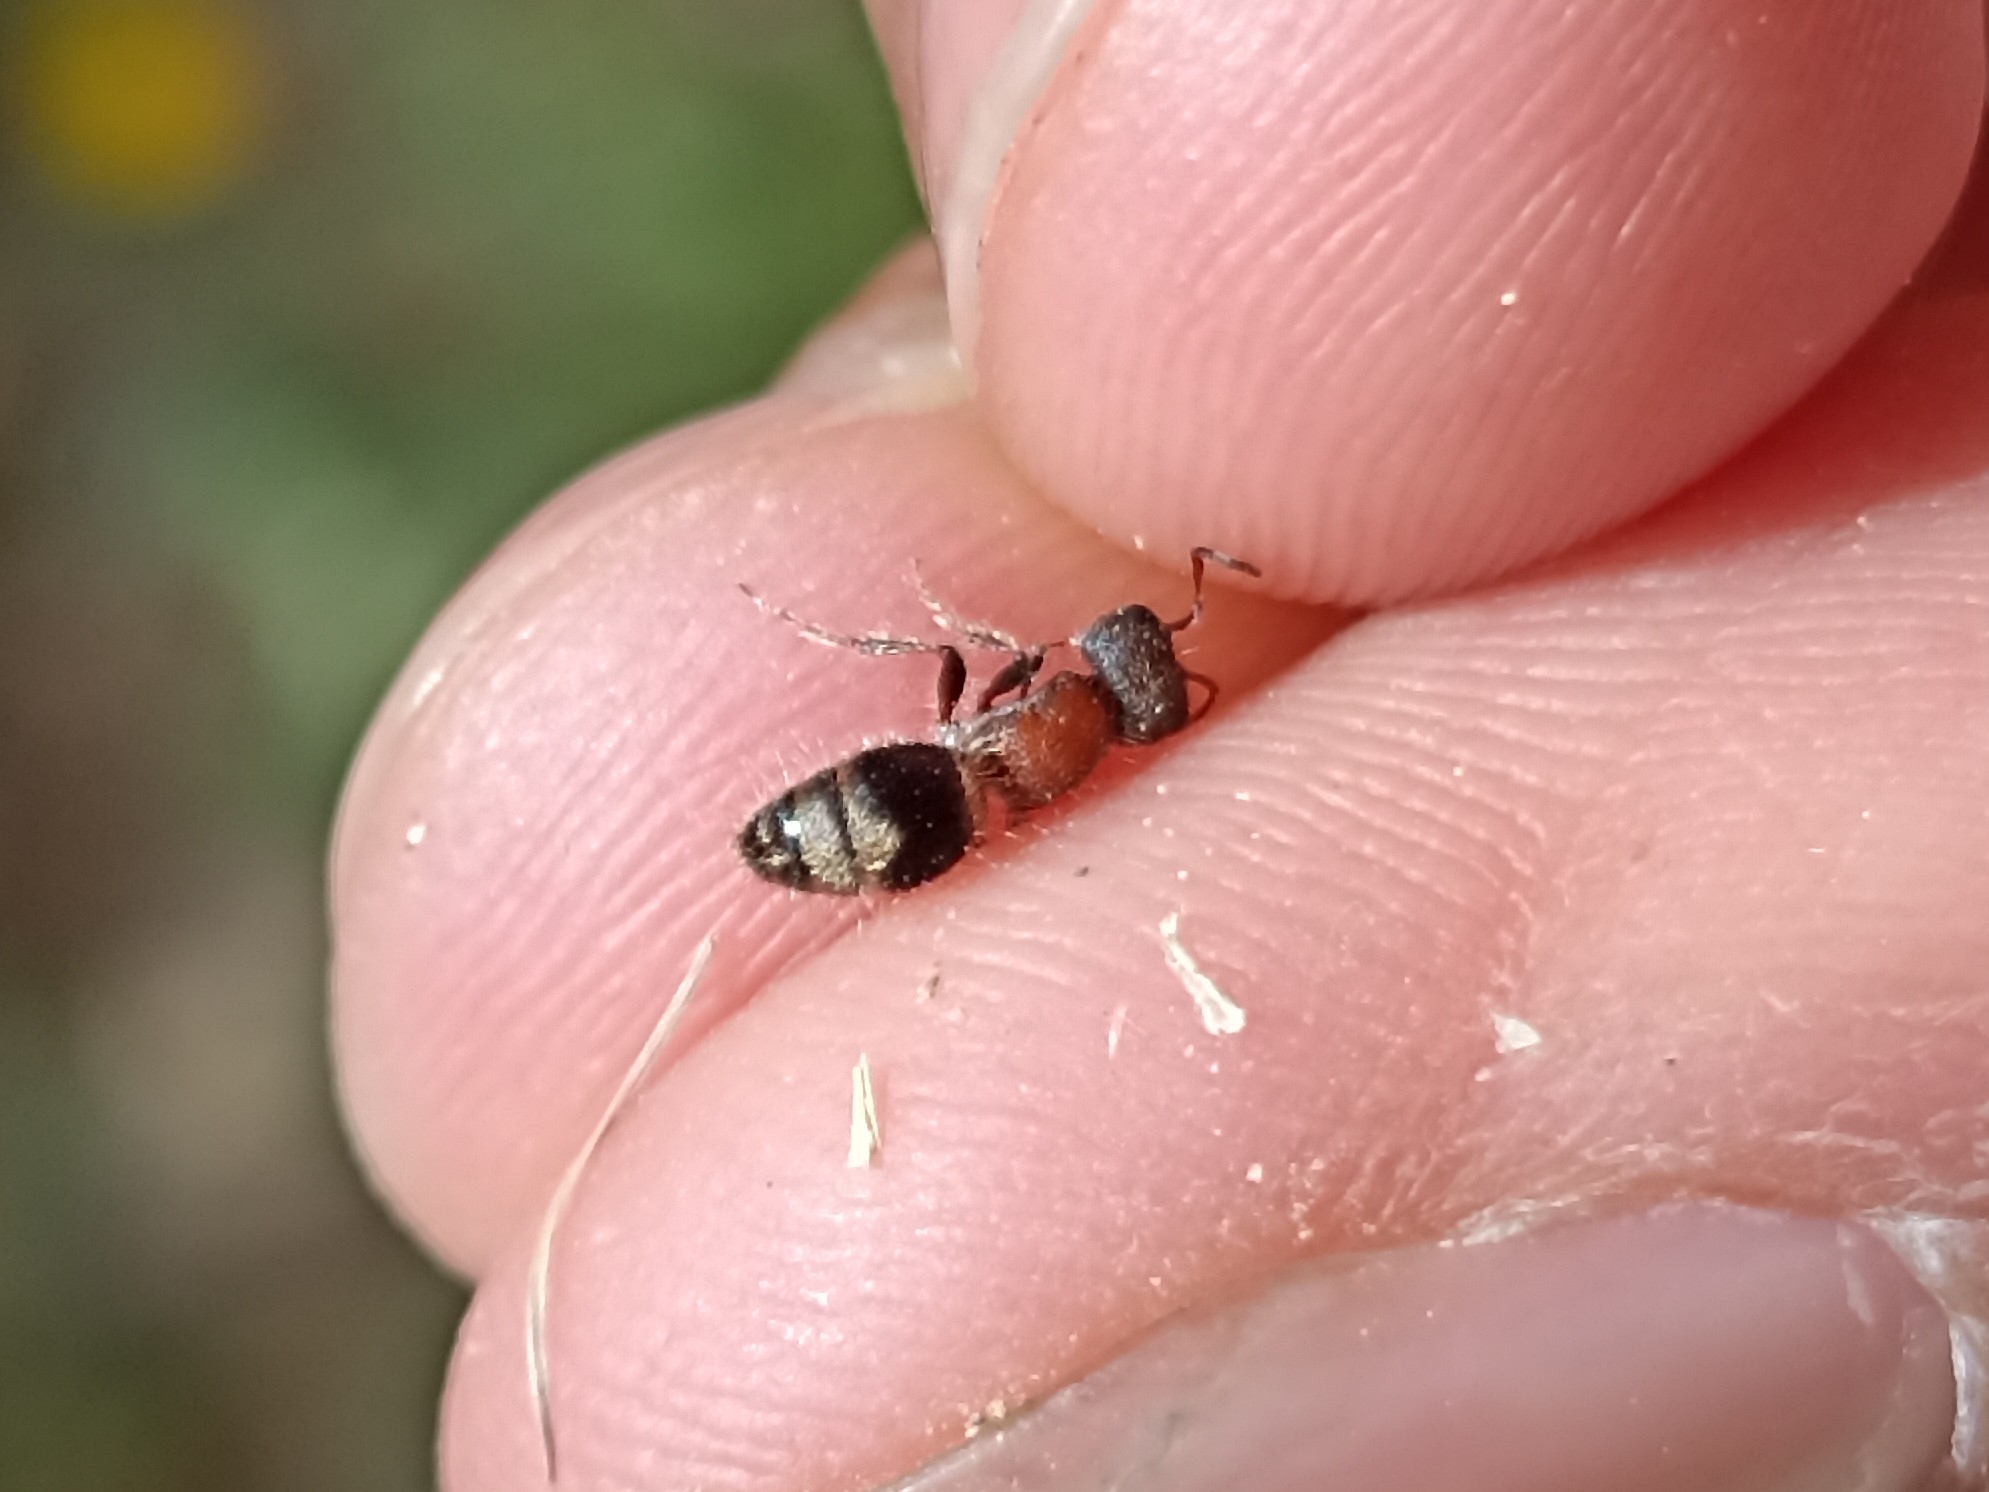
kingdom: Animalia
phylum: Arthropoda
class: Insecta
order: Hymenoptera
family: Mutillidae
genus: Myrmilla
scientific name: Myrmilla
